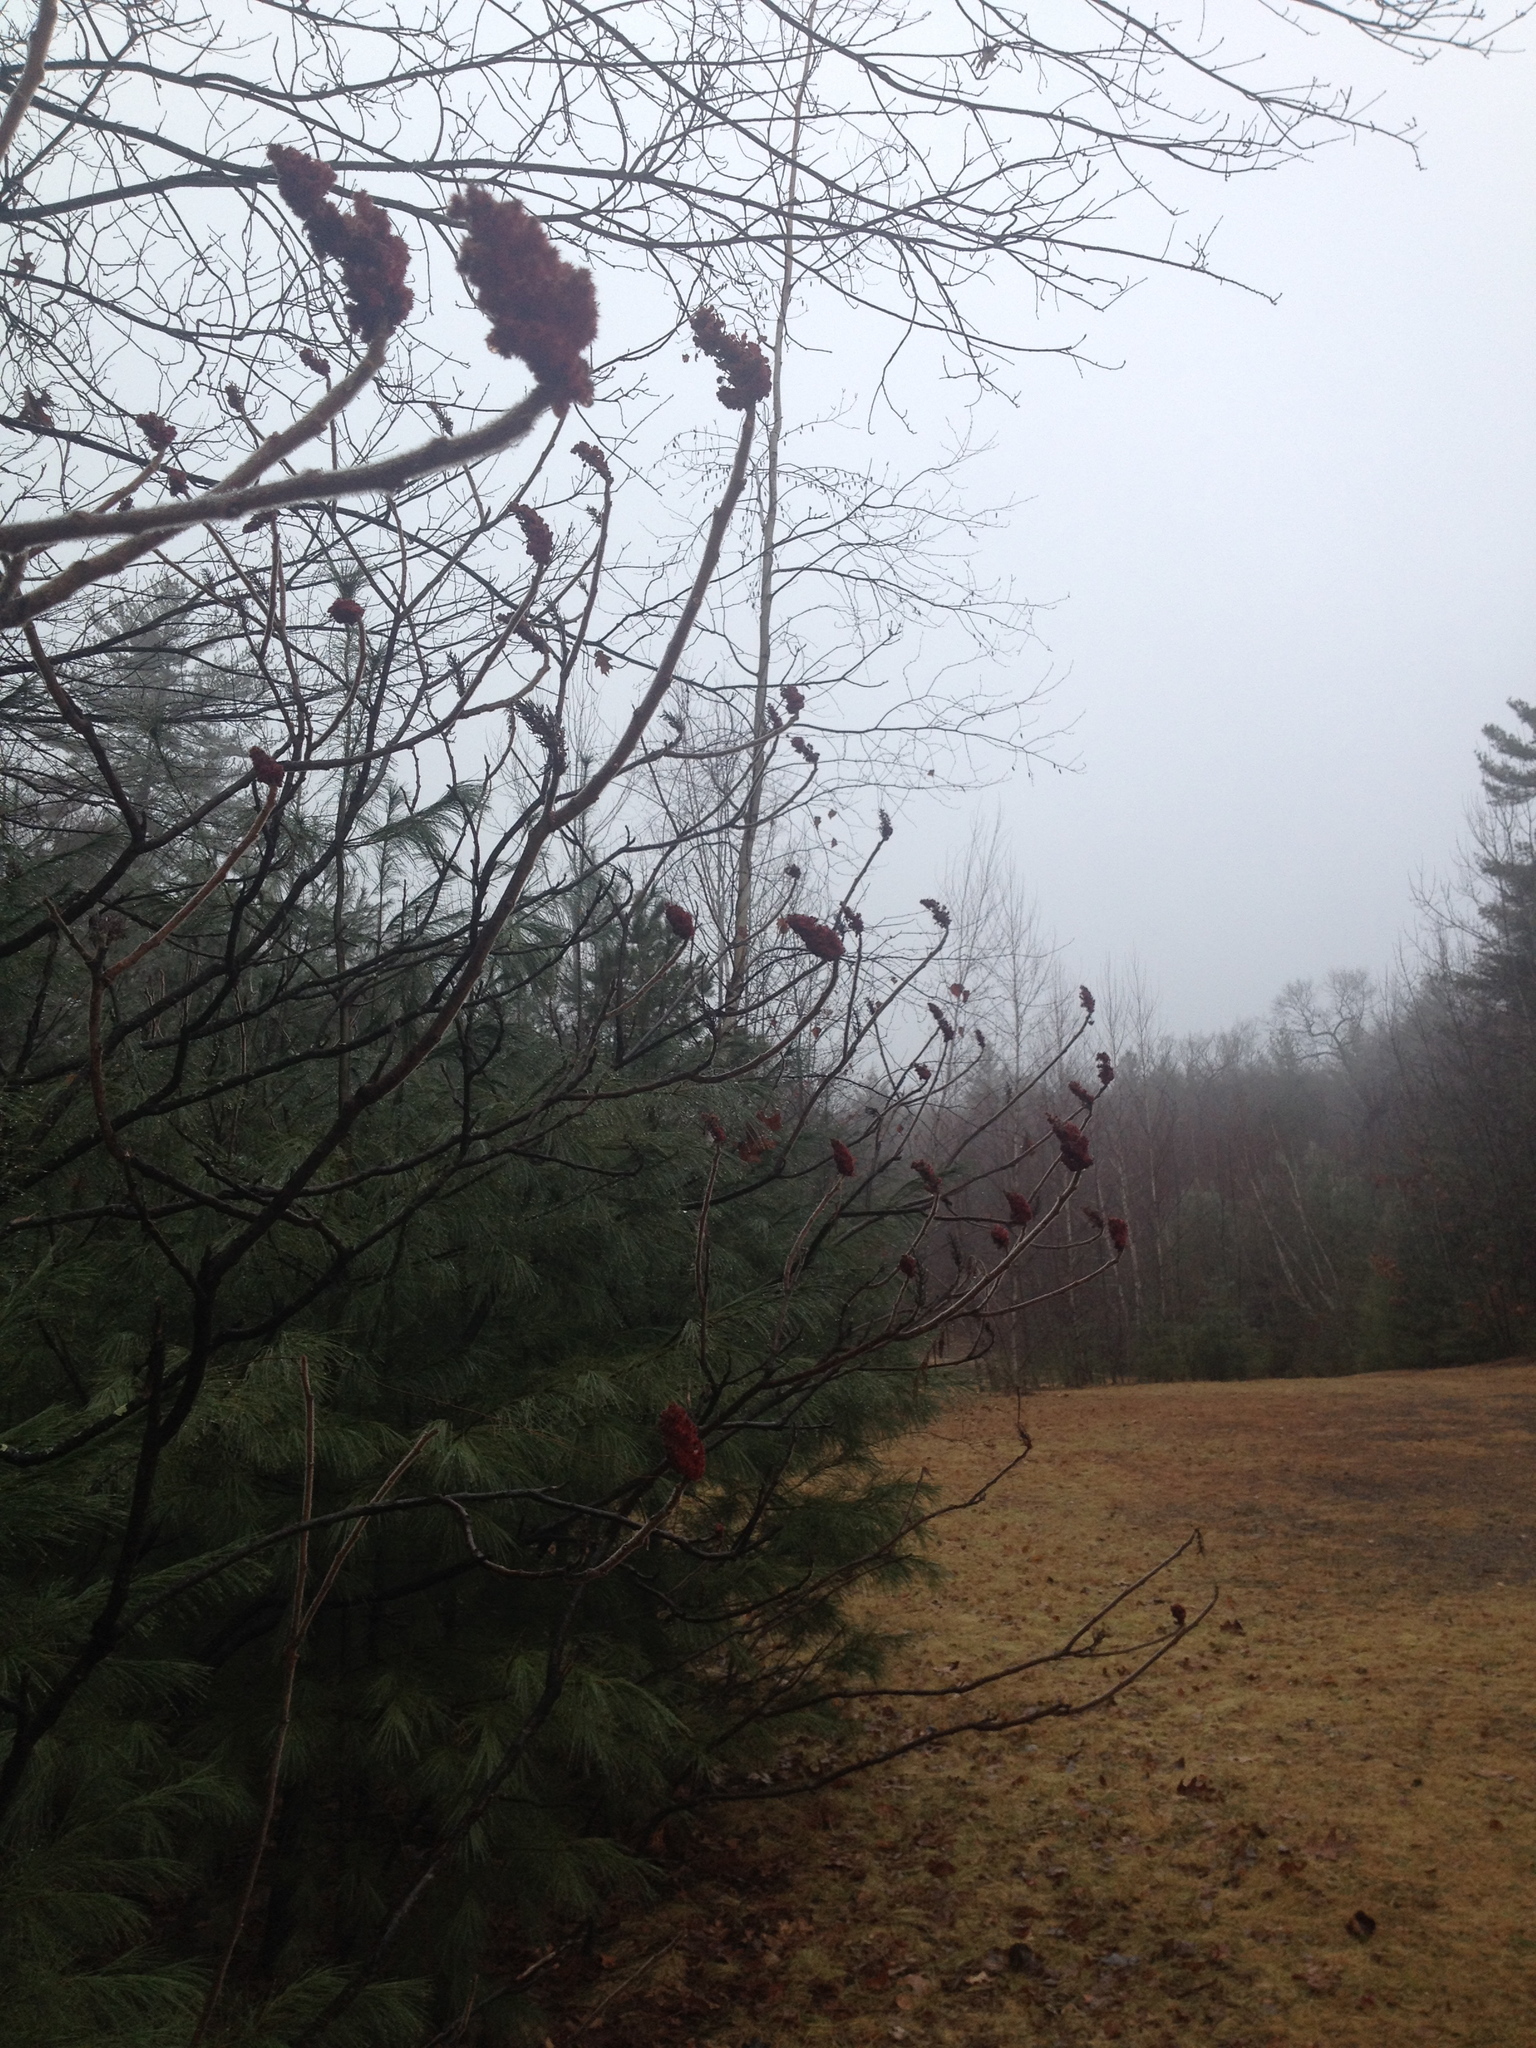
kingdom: Plantae
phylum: Tracheophyta
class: Magnoliopsida
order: Sapindales
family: Anacardiaceae
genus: Rhus
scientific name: Rhus typhina
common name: Staghorn sumac
